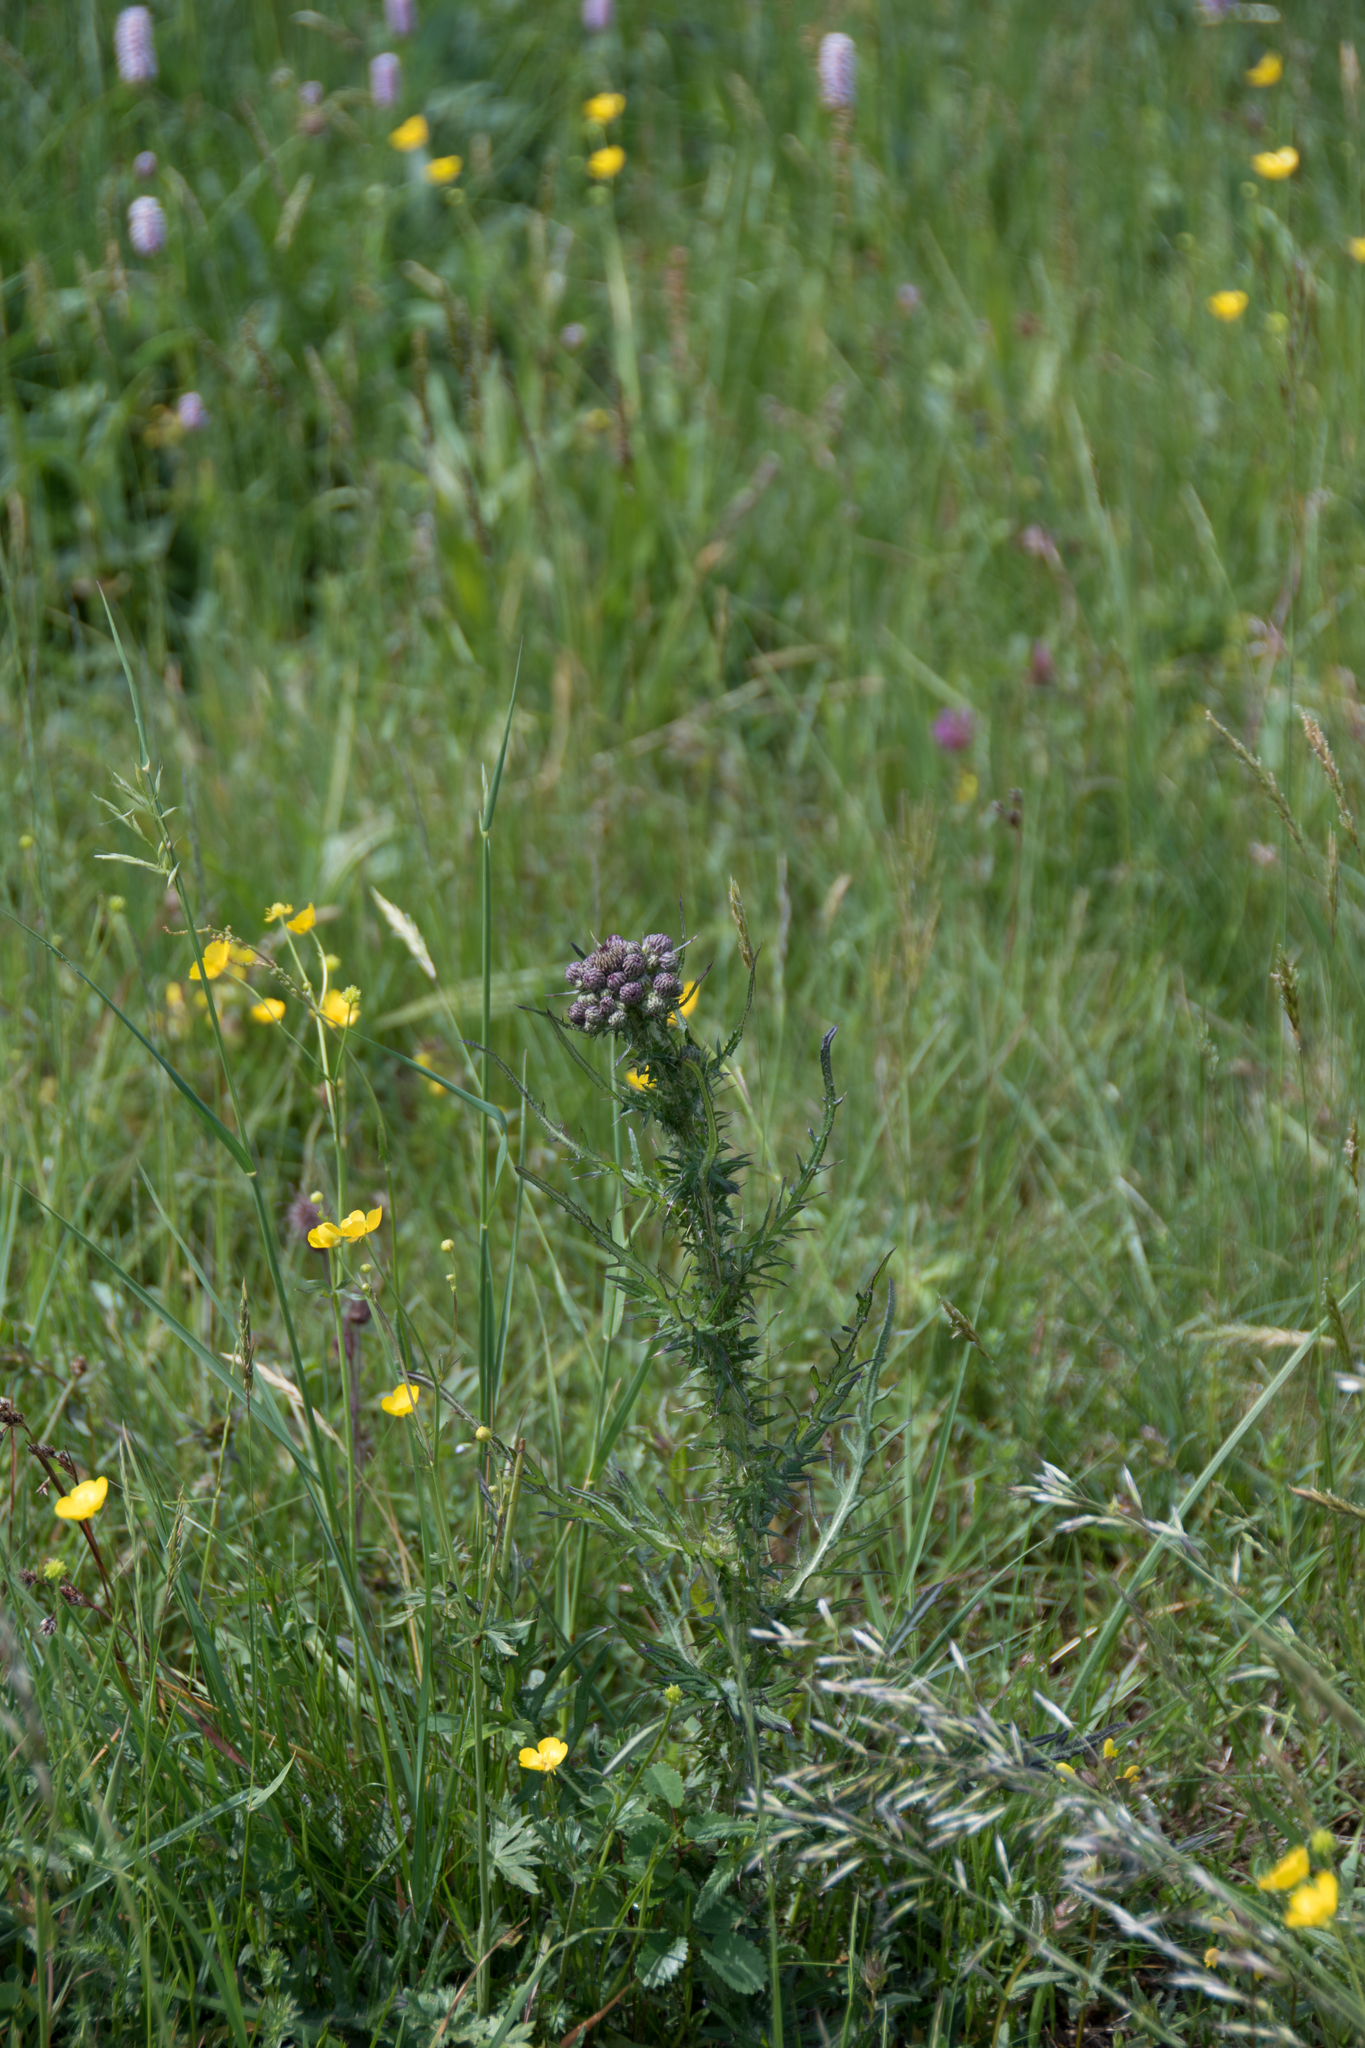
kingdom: Plantae
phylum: Tracheophyta
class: Magnoliopsida
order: Asterales
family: Asteraceae
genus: Cirsium
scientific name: Cirsium palustre
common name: Marsh thistle
